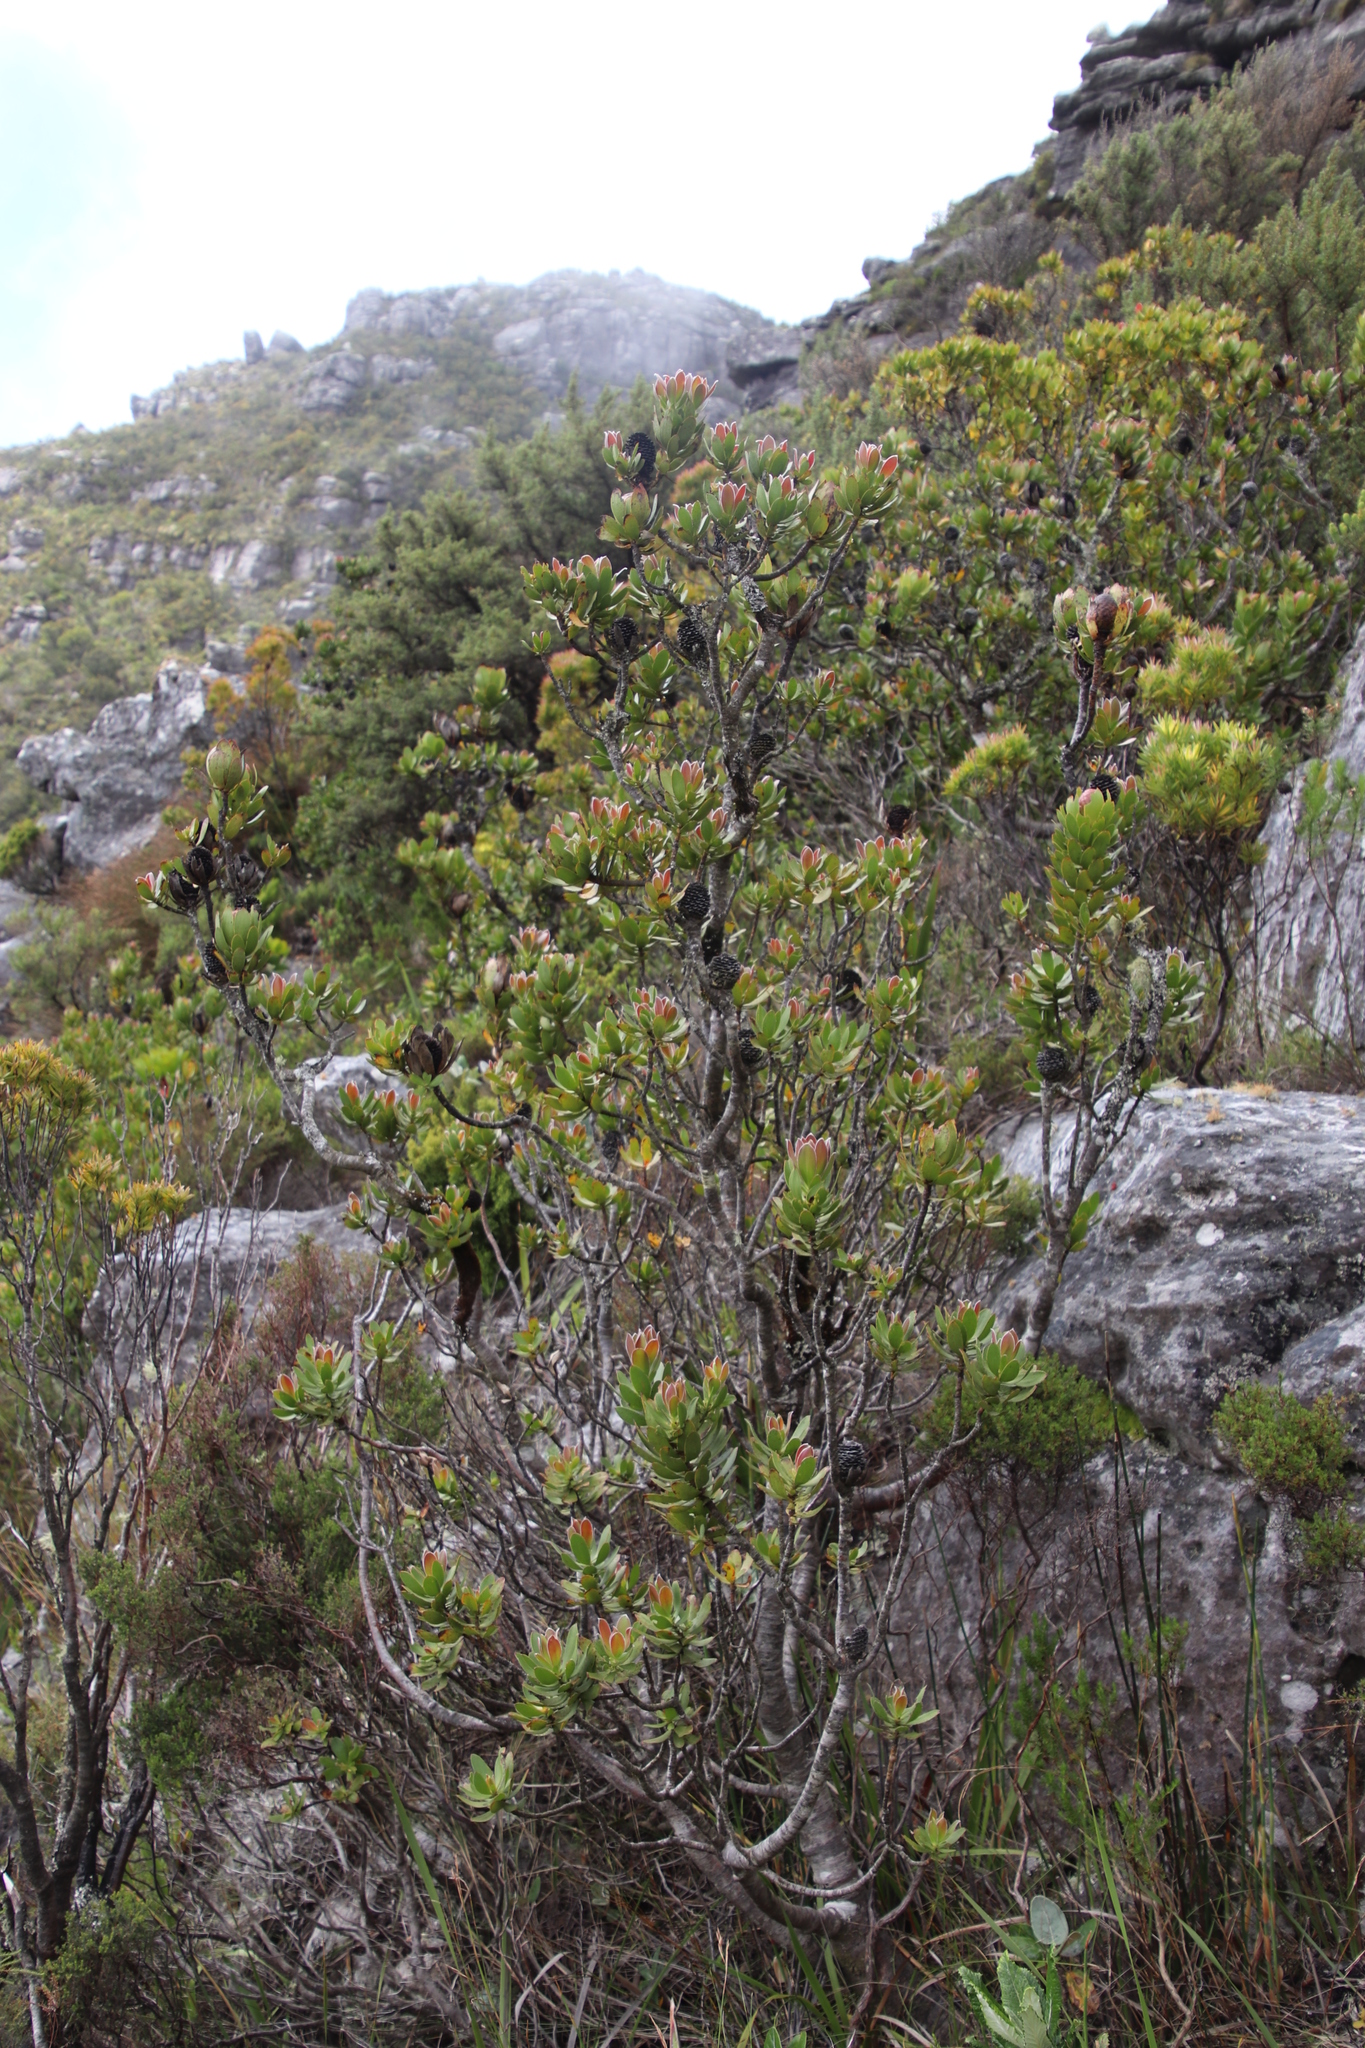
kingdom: Plantae
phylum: Tracheophyta
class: Magnoliopsida
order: Proteales
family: Proteaceae
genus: Leucadendron
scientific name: Leucadendron strobilinum
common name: Mountain rose
